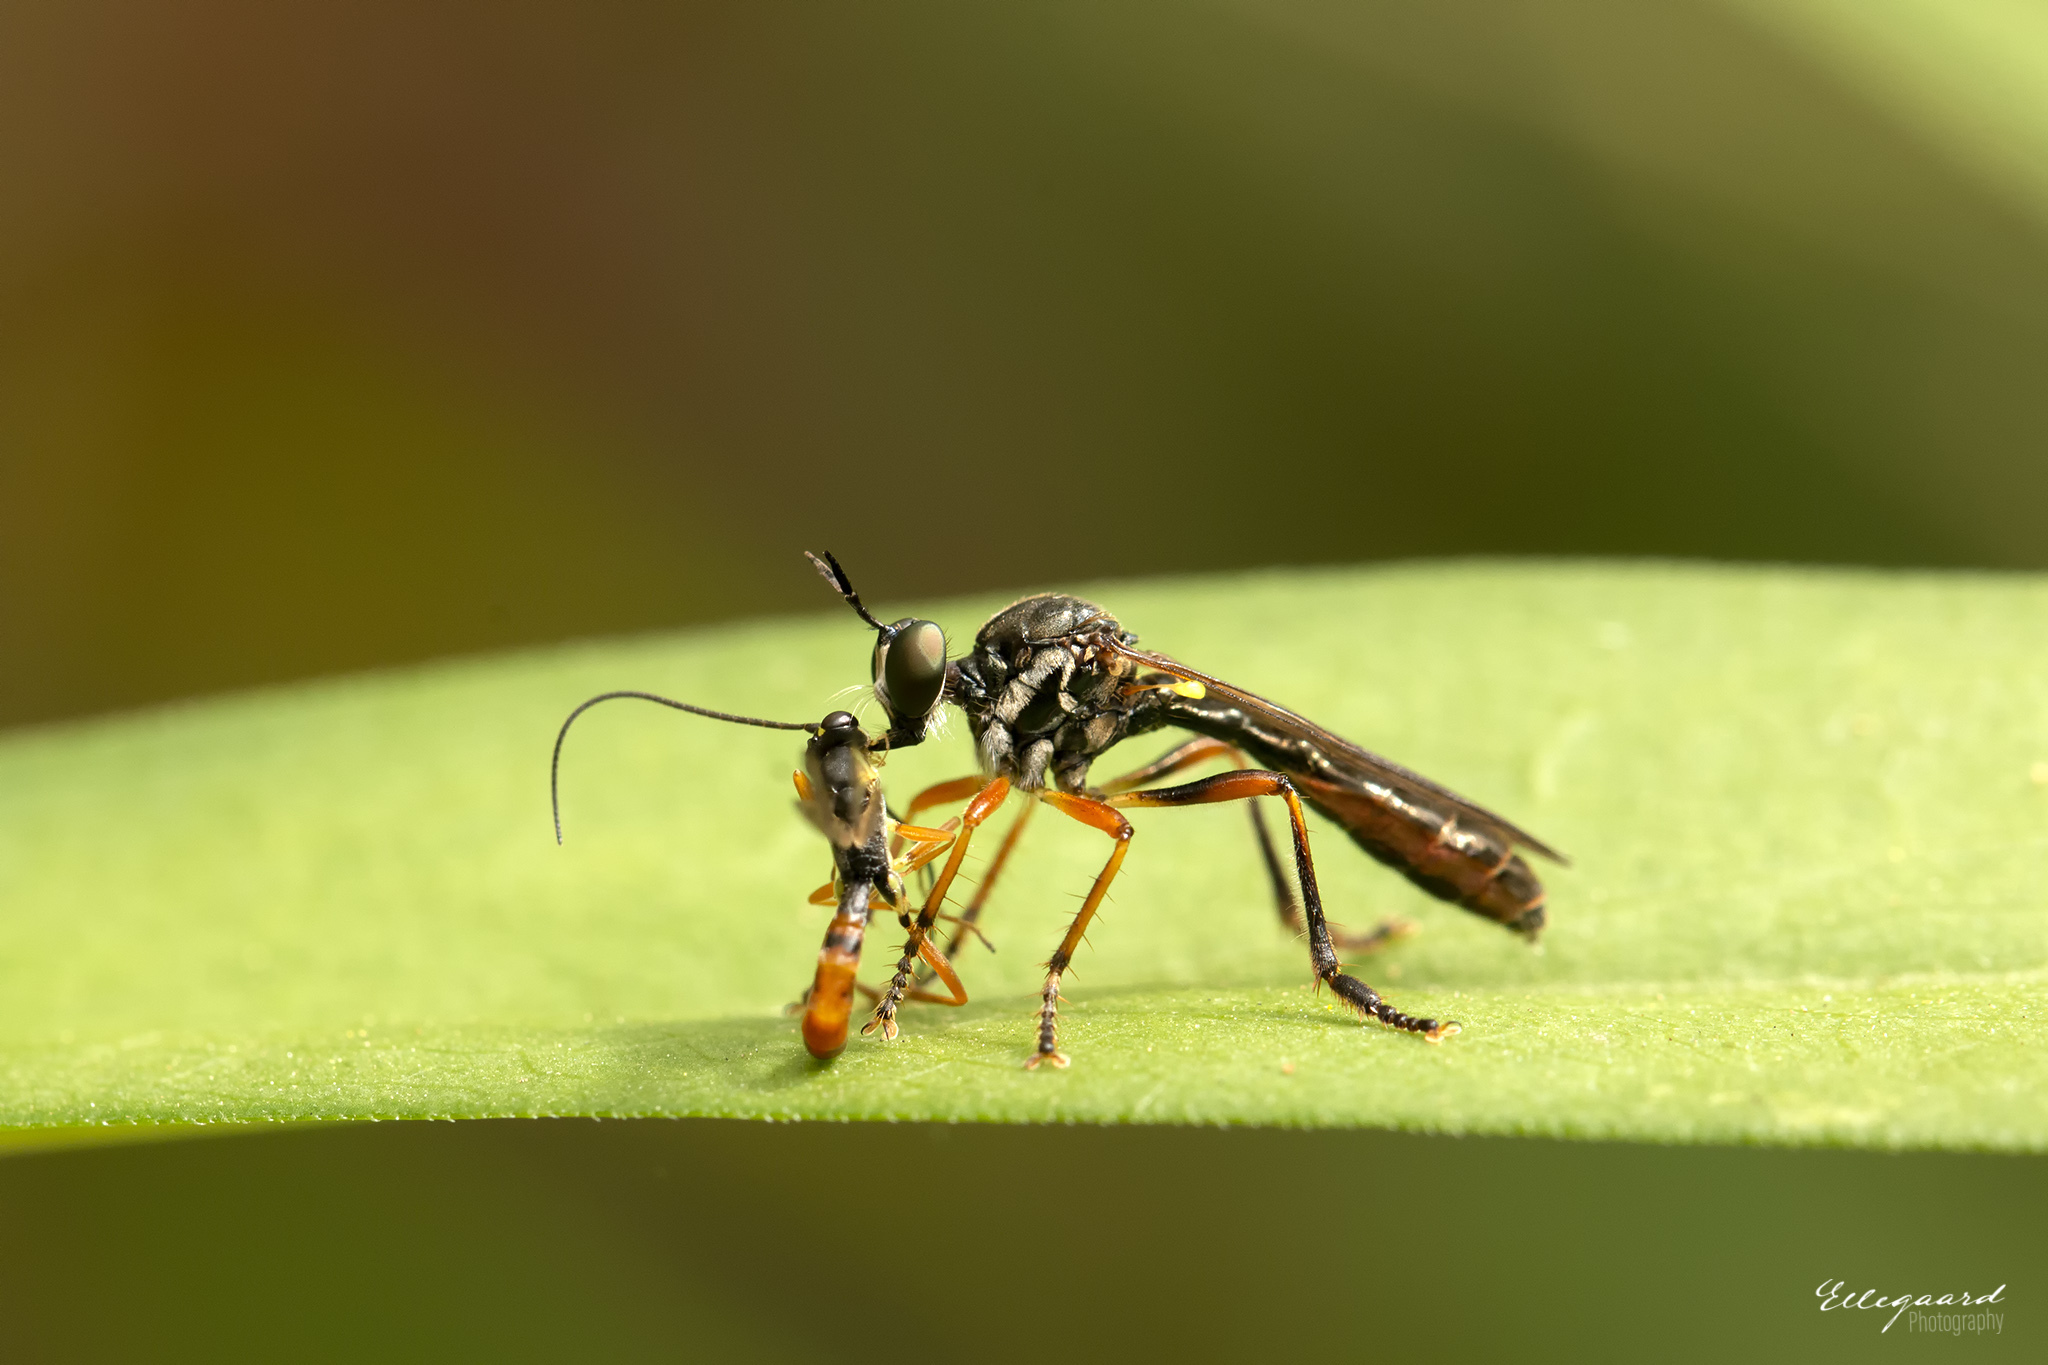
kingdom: Animalia
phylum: Arthropoda
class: Insecta
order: Diptera
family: Asilidae
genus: Dioctria
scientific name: Dioctria hyalipennis
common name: Stripe-legged robberfly
